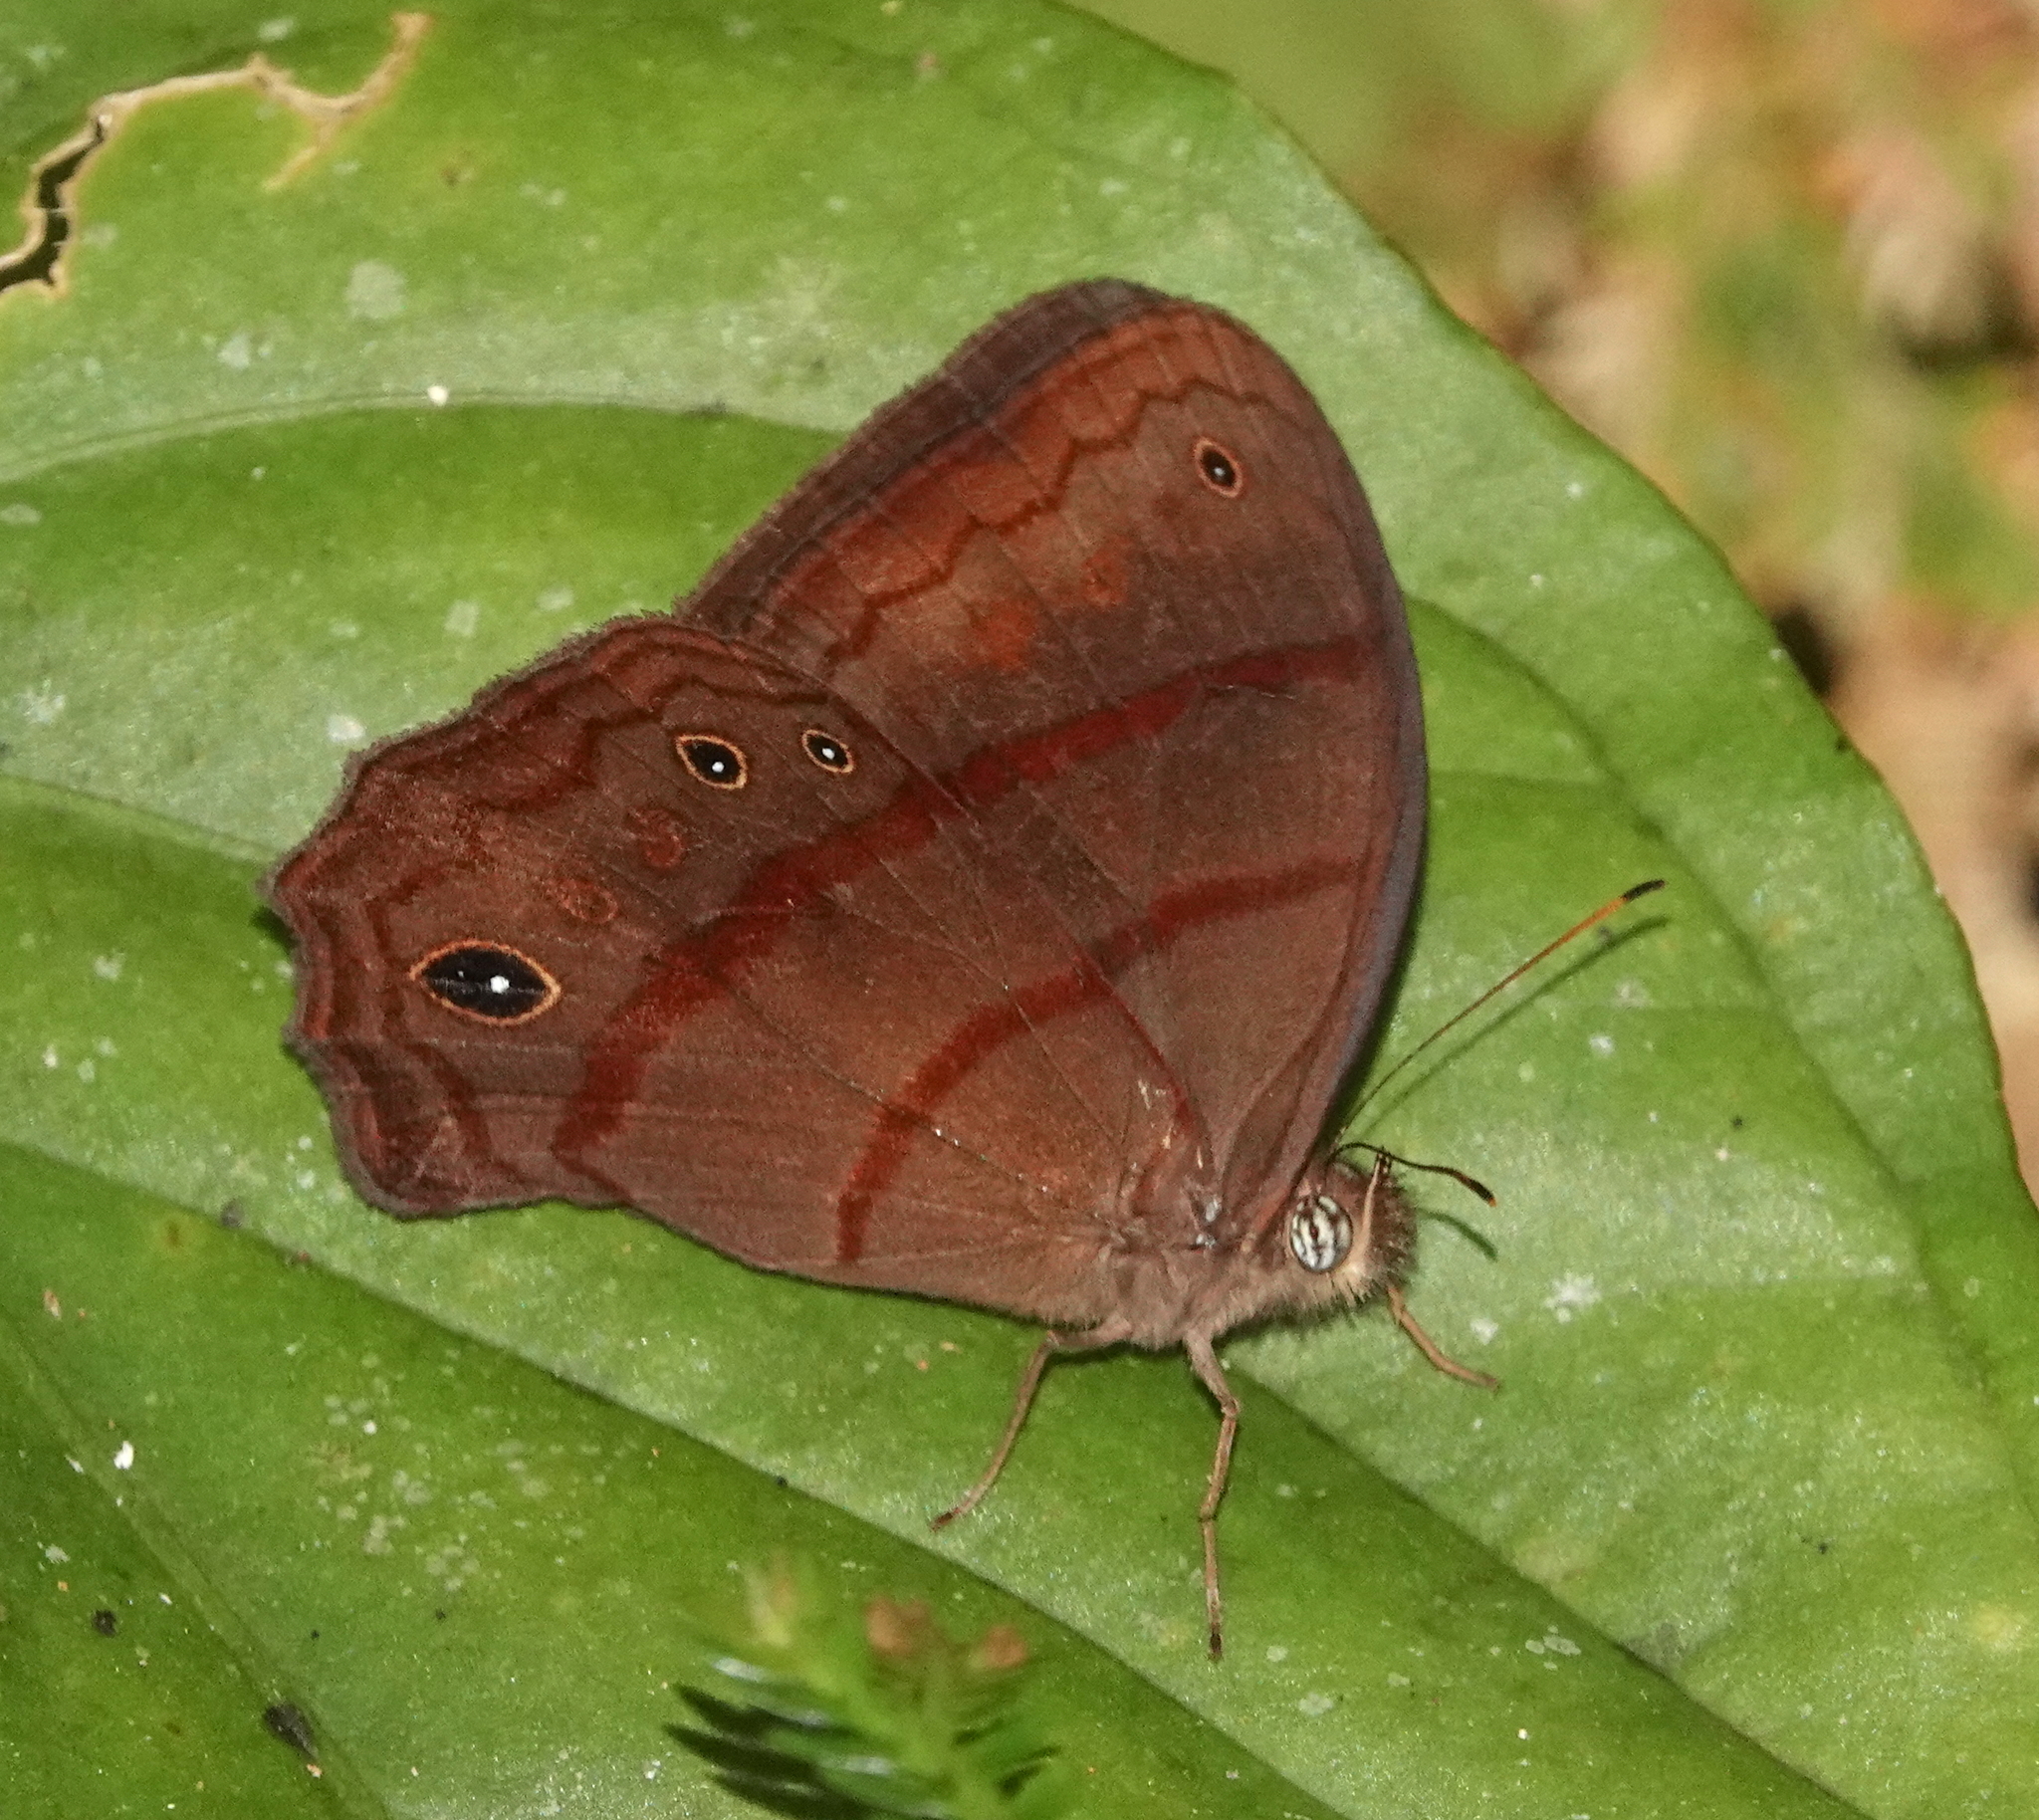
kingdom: Animalia
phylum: Arthropoda
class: Insecta
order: Lepidoptera
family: Nymphalidae
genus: Satyrotaygetis
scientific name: Satyrotaygetis satyrina
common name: Wide-bordered satyr
